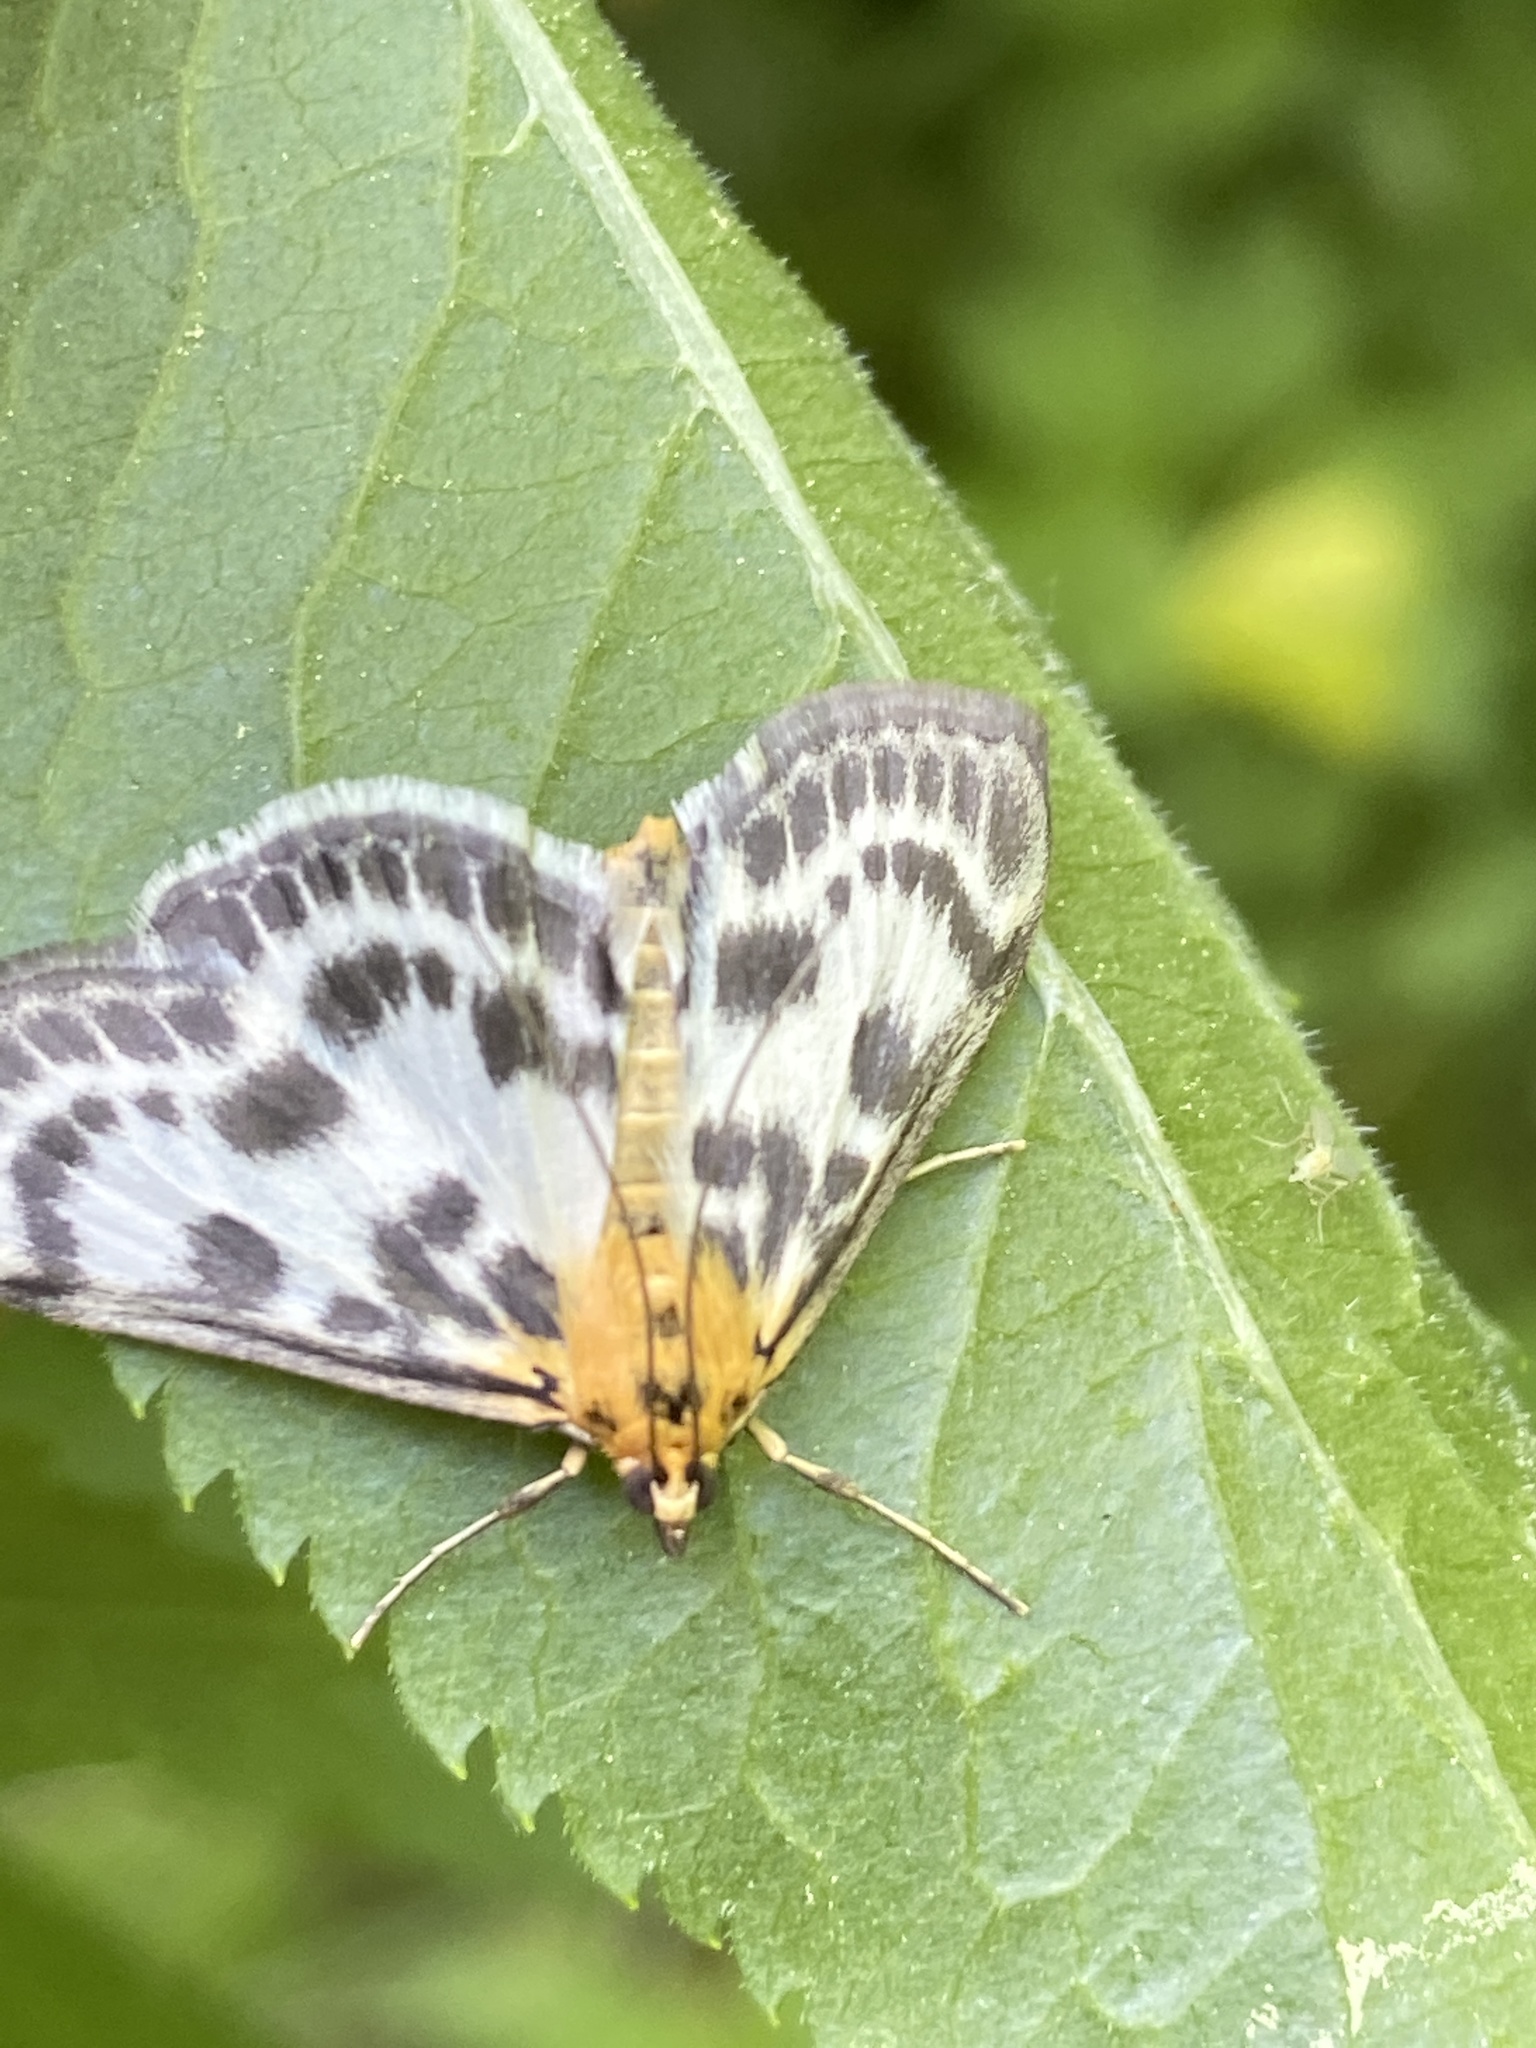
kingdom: Animalia
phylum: Arthropoda
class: Insecta
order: Lepidoptera
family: Crambidae
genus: Anania
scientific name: Anania hortulata
